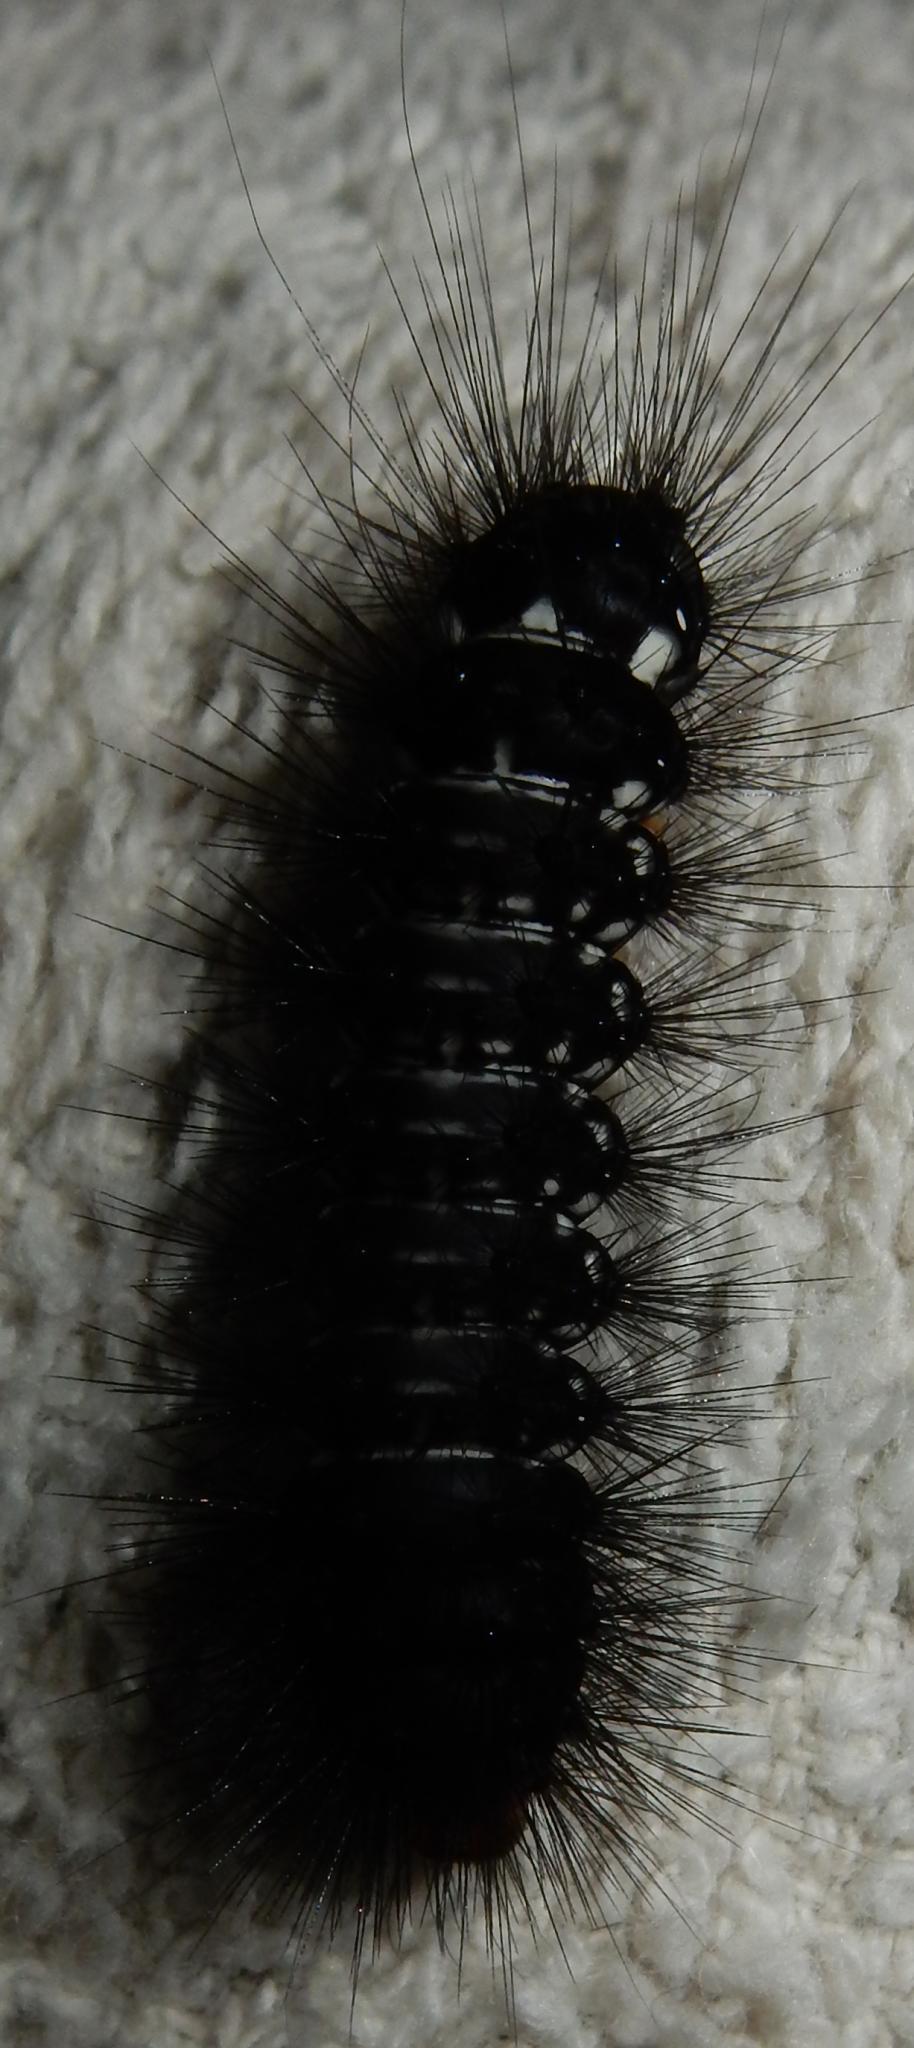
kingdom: Animalia
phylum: Arthropoda
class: Insecta
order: Lepidoptera
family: Erebidae
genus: Afromurzinia
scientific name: Afromurzinia lutescens
